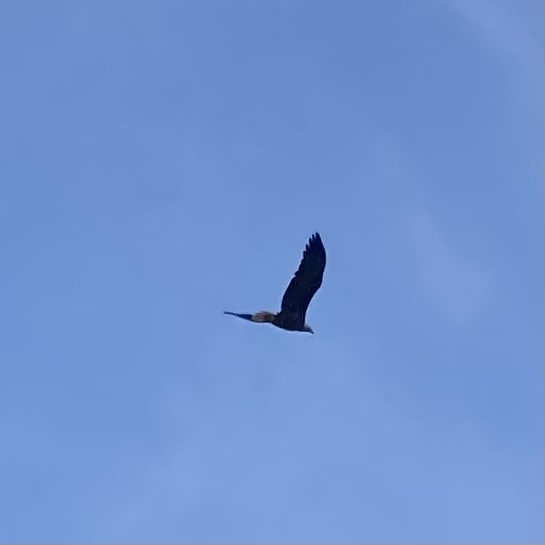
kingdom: Animalia
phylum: Chordata
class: Aves
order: Accipitriformes
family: Accipitridae
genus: Haliaeetus
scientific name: Haliaeetus leucocephalus
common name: Bald eagle
